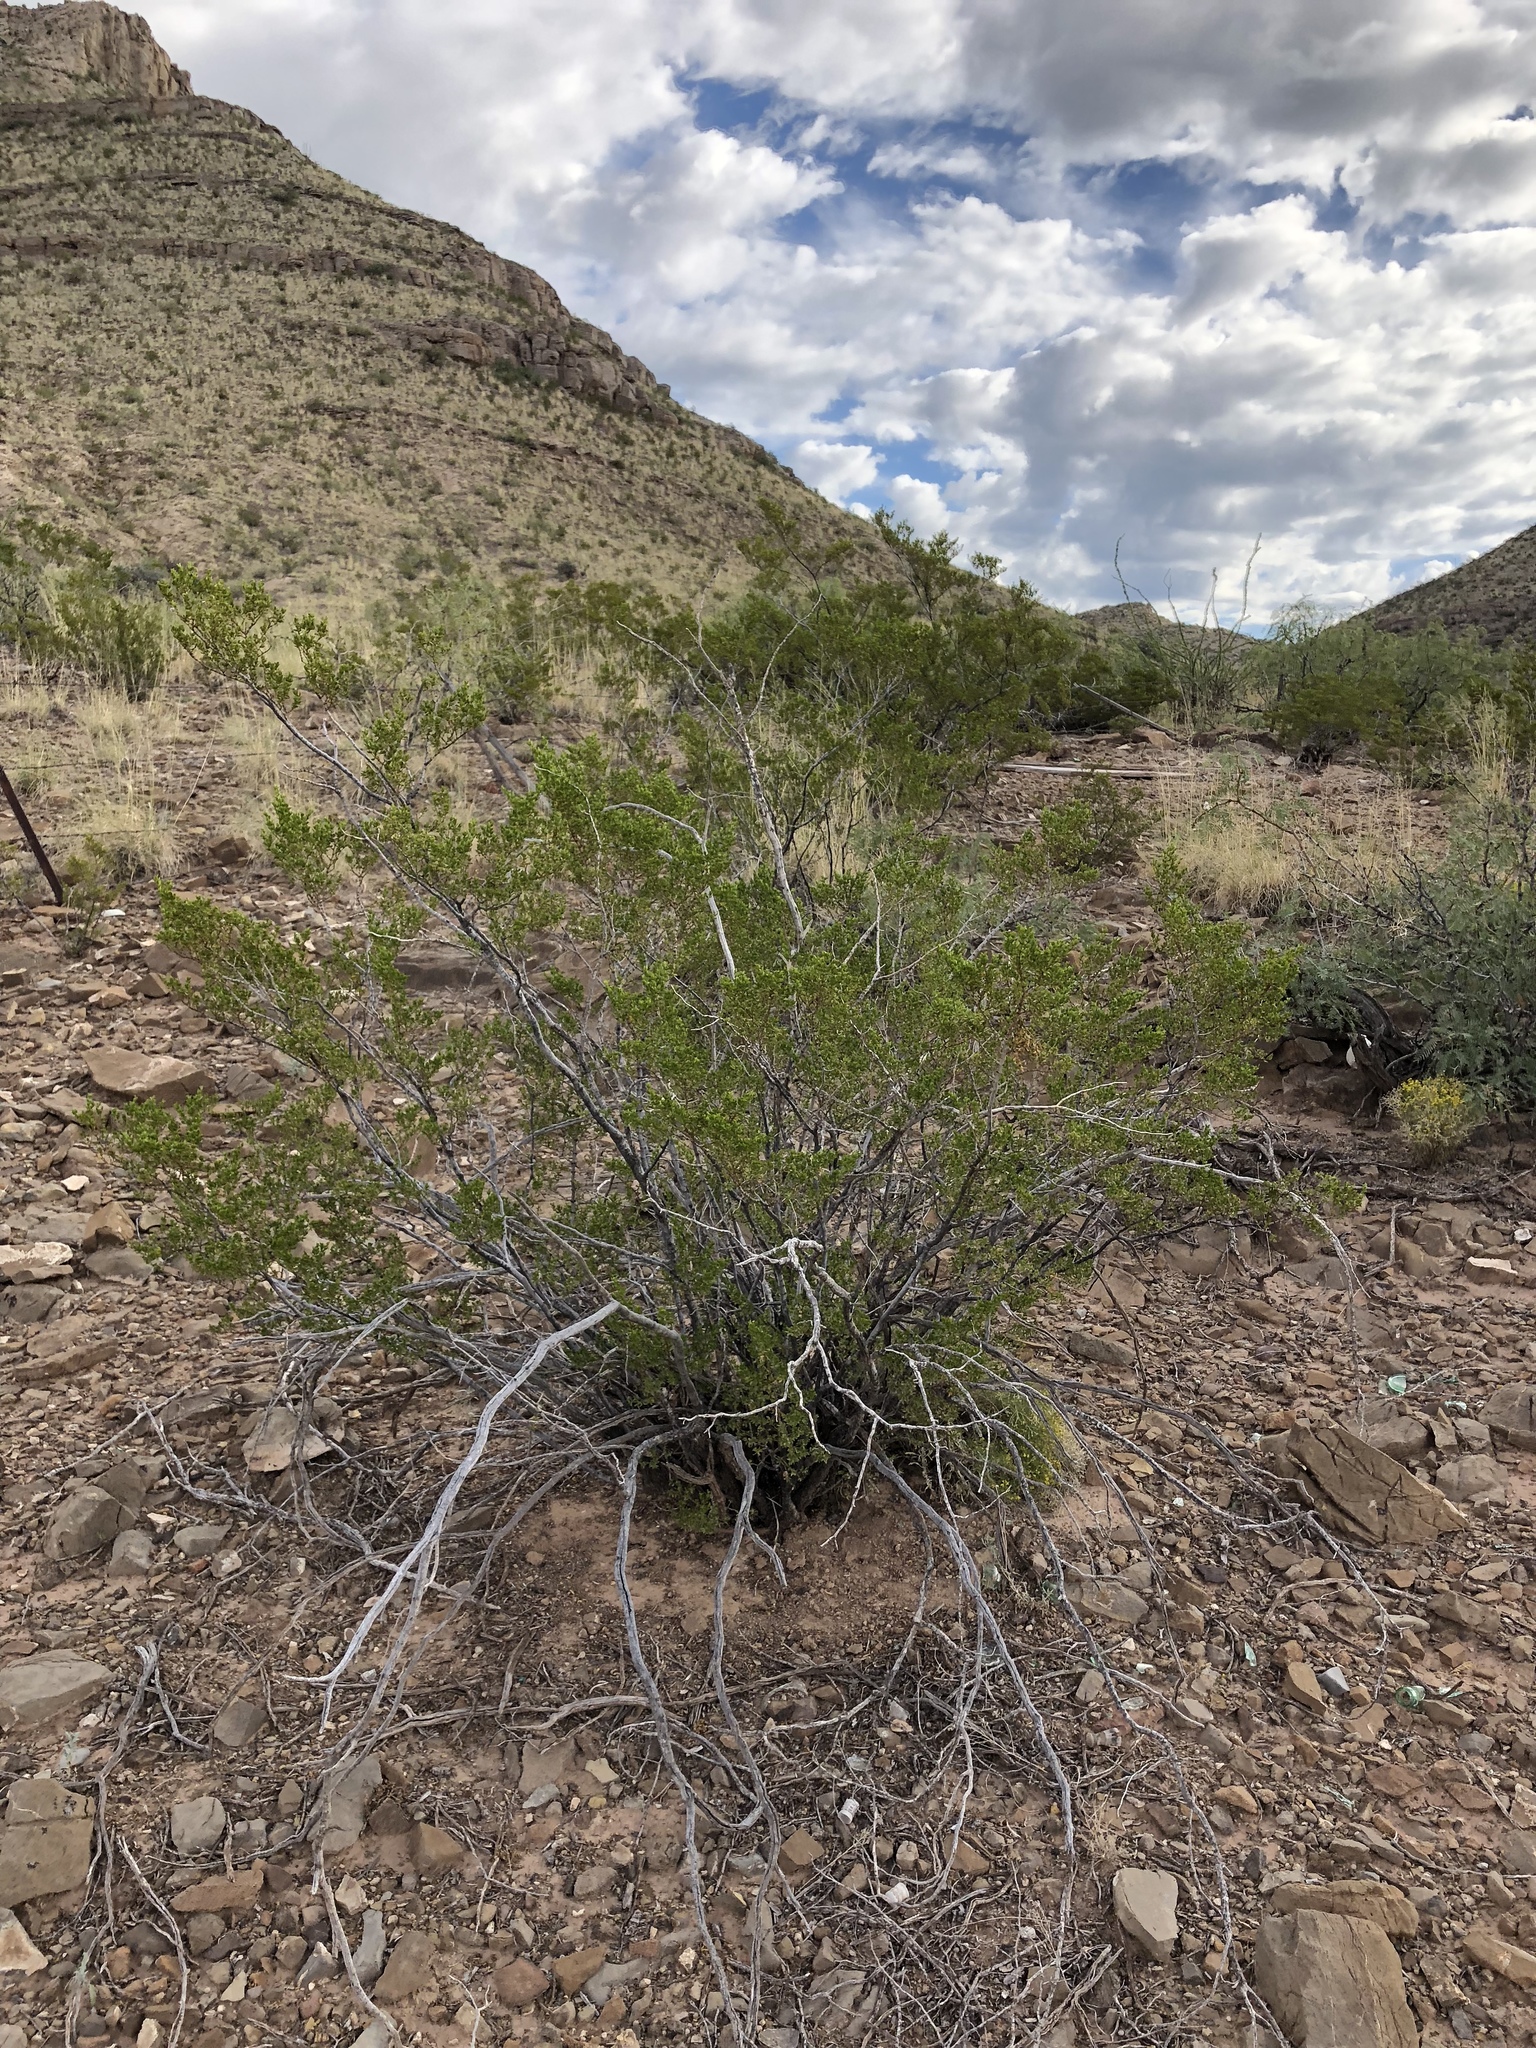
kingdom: Plantae
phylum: Tracheophyta
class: Magnoliopsida
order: Zygophyllales
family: Zygophyllaceae
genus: Larrea
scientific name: Larrea tridentata
